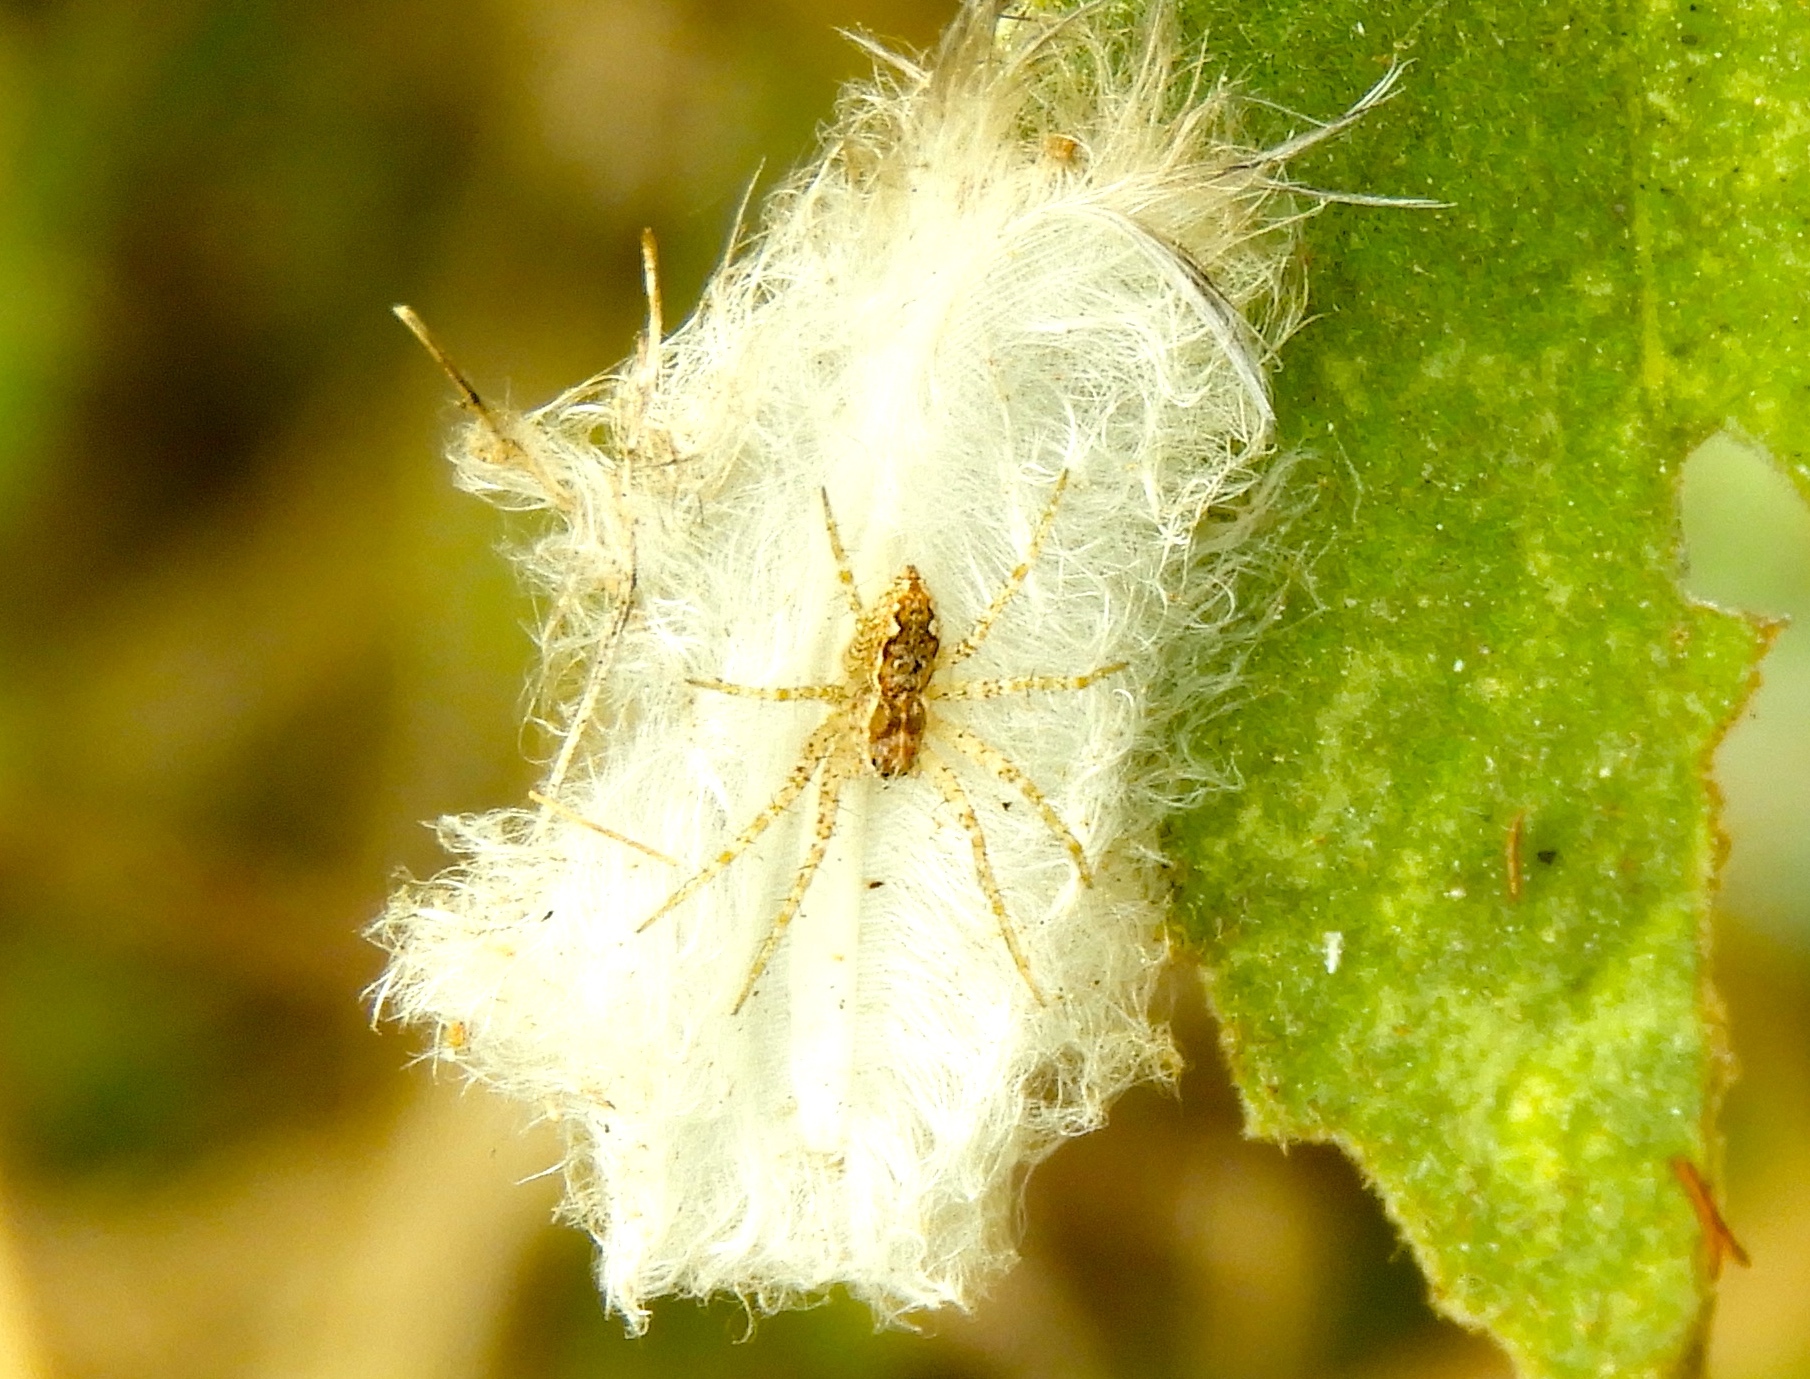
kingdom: Animalia
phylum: Arthropoda
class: Arachnida
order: Araneae
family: Pisauridae
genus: Tinus
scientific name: Tinus
